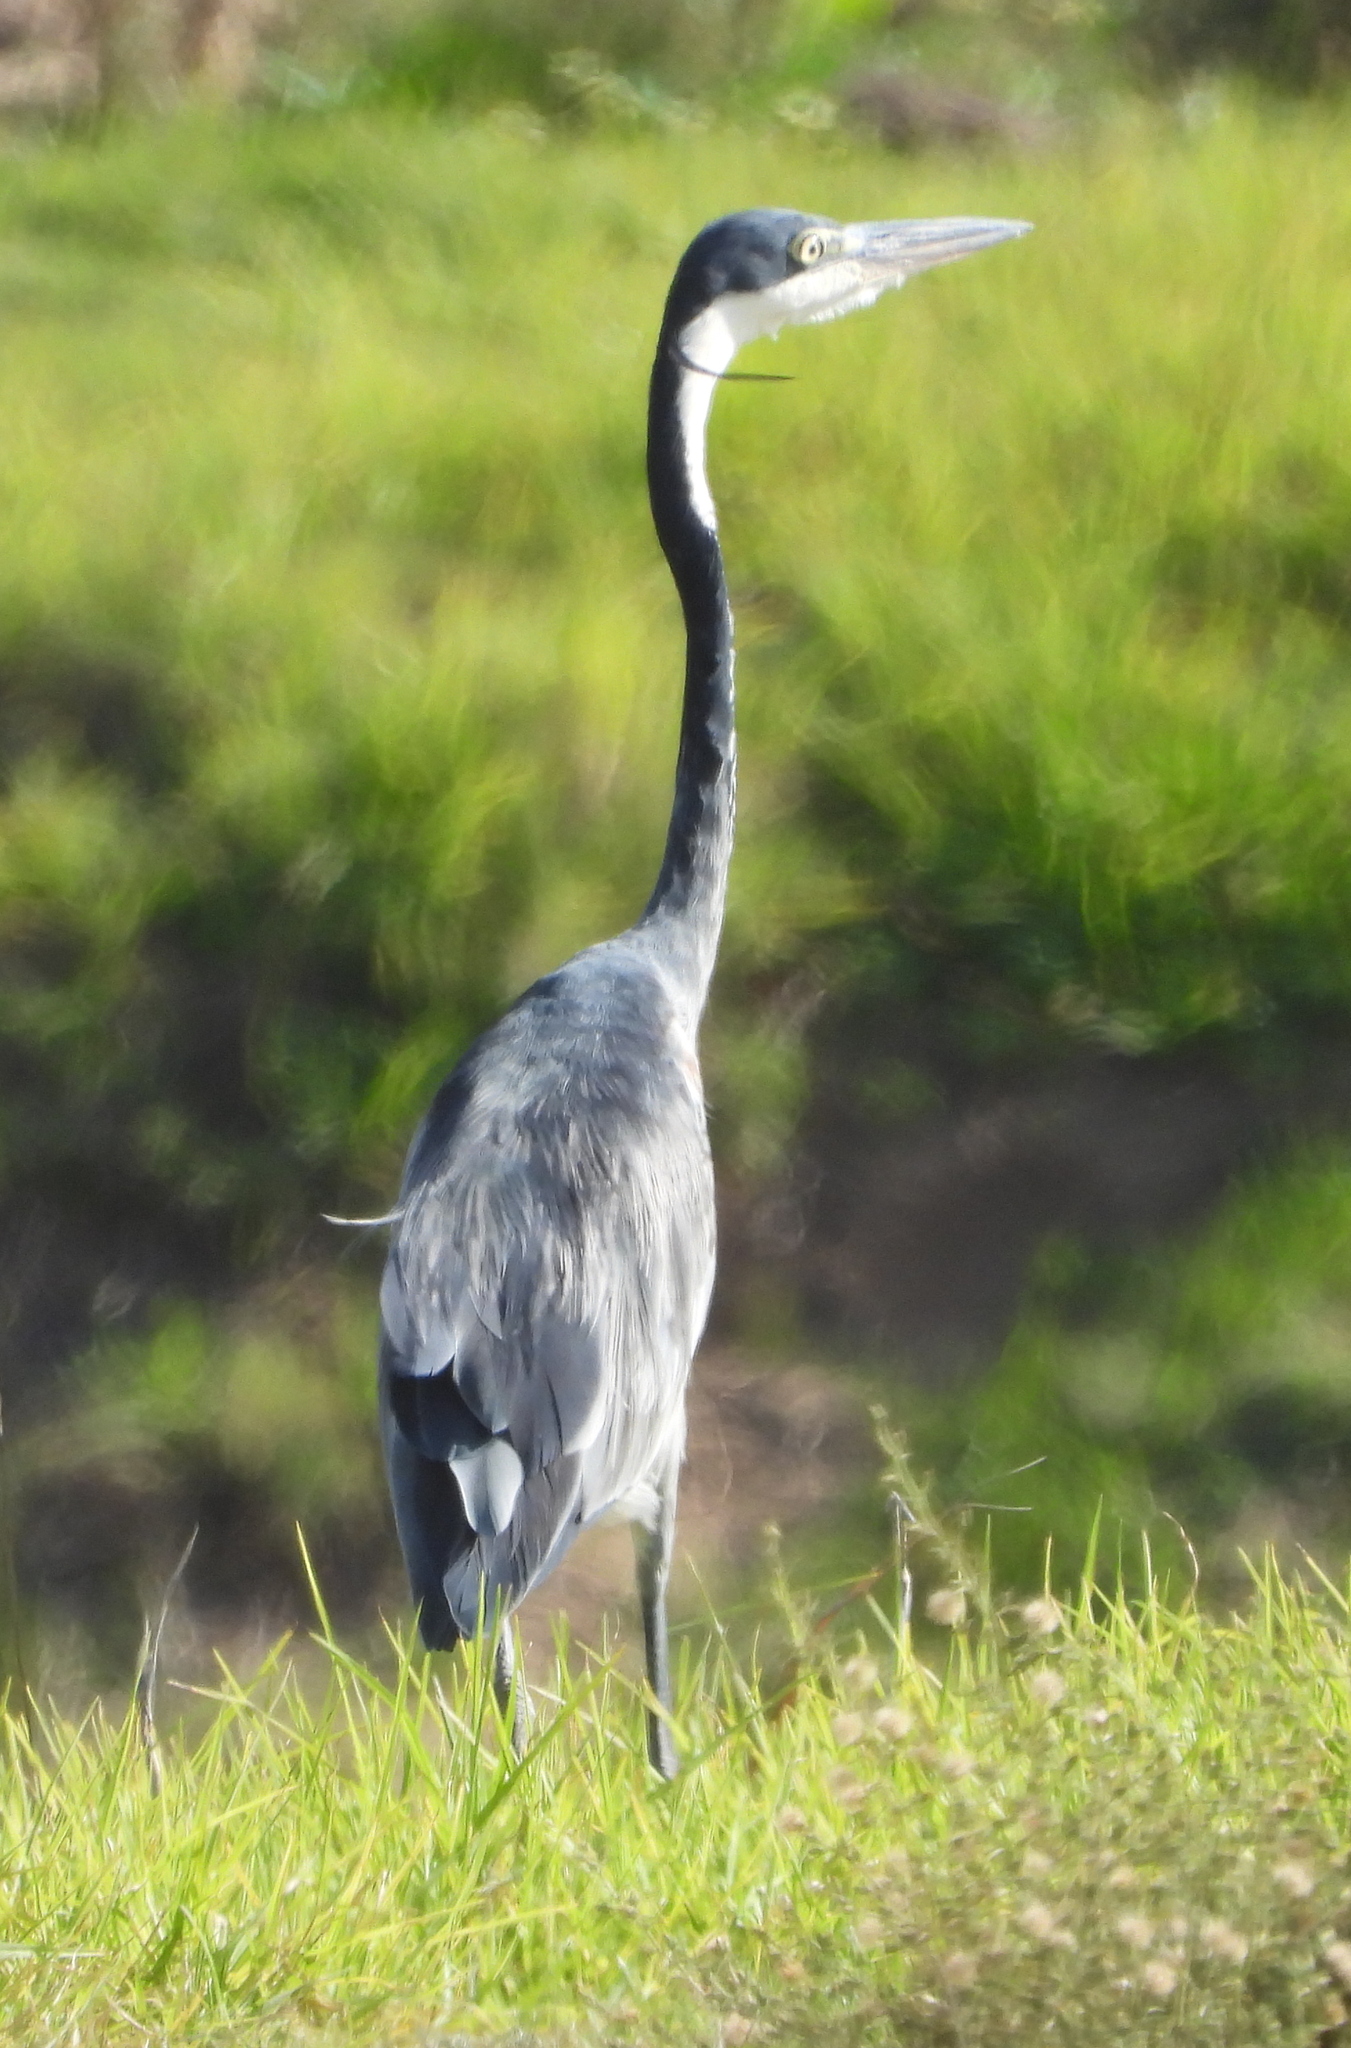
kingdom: Animalia
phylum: Chordata
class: Aves
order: Pelecaniformes
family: Ardeidae
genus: Ardea
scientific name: Ardea melanocephala
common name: Black-headed heron
